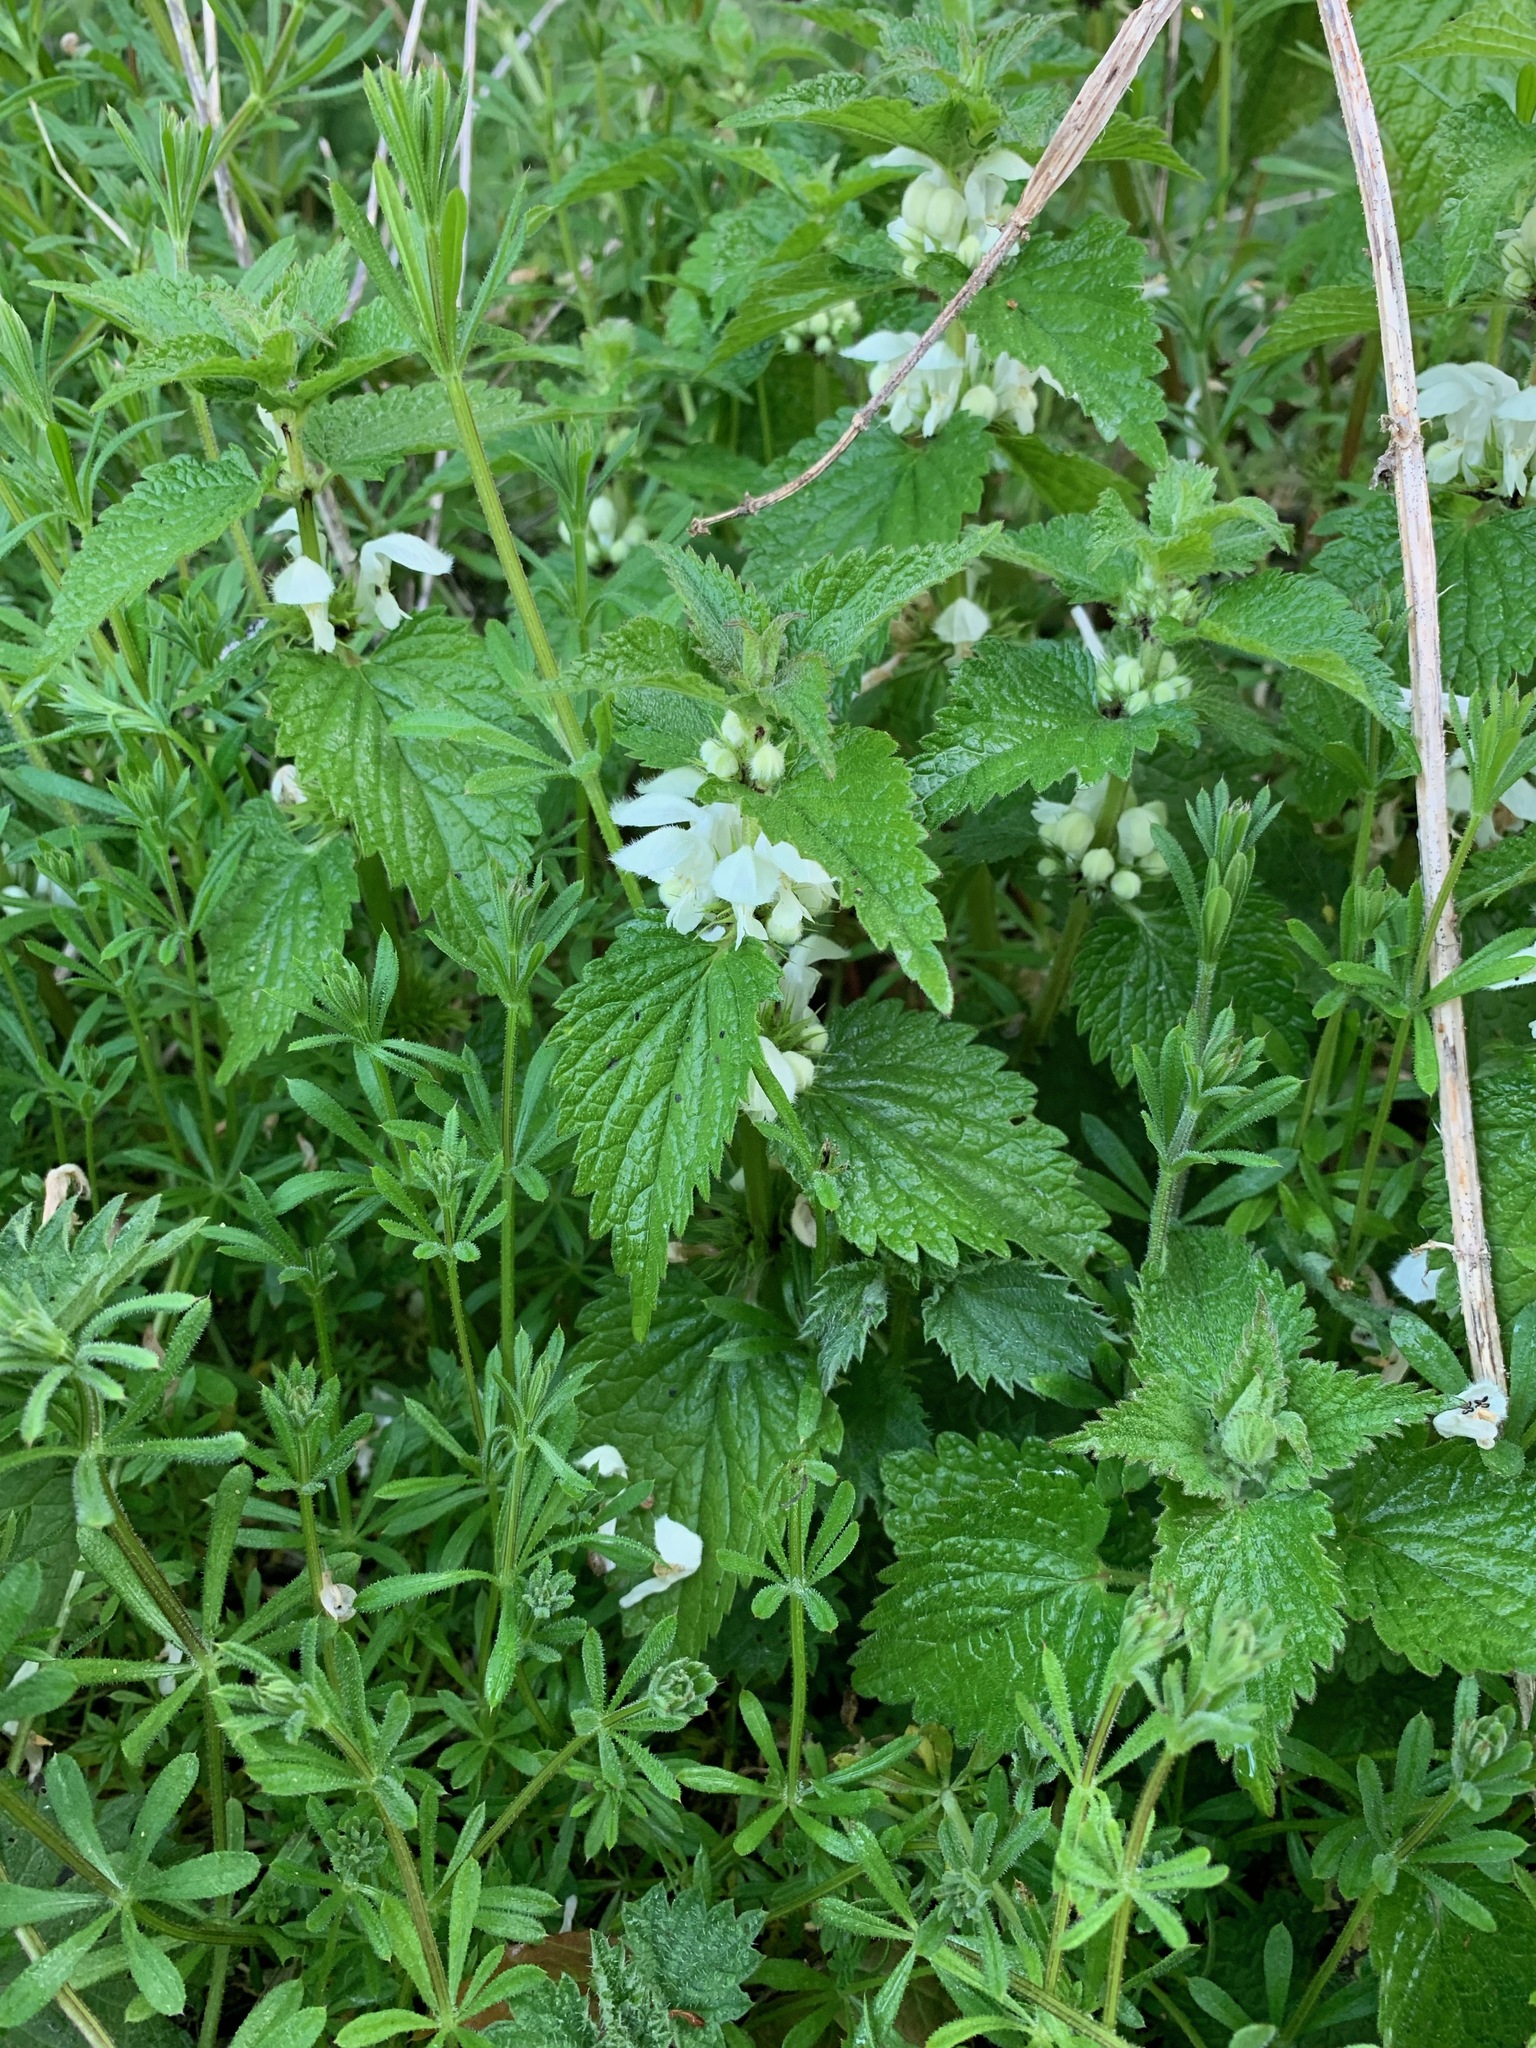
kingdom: Plantae
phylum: Tracheophyta
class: Magnoliopsida
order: Lamiales
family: Lamiaceae
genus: Lamium
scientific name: Lamium album
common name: White dead-nettle
